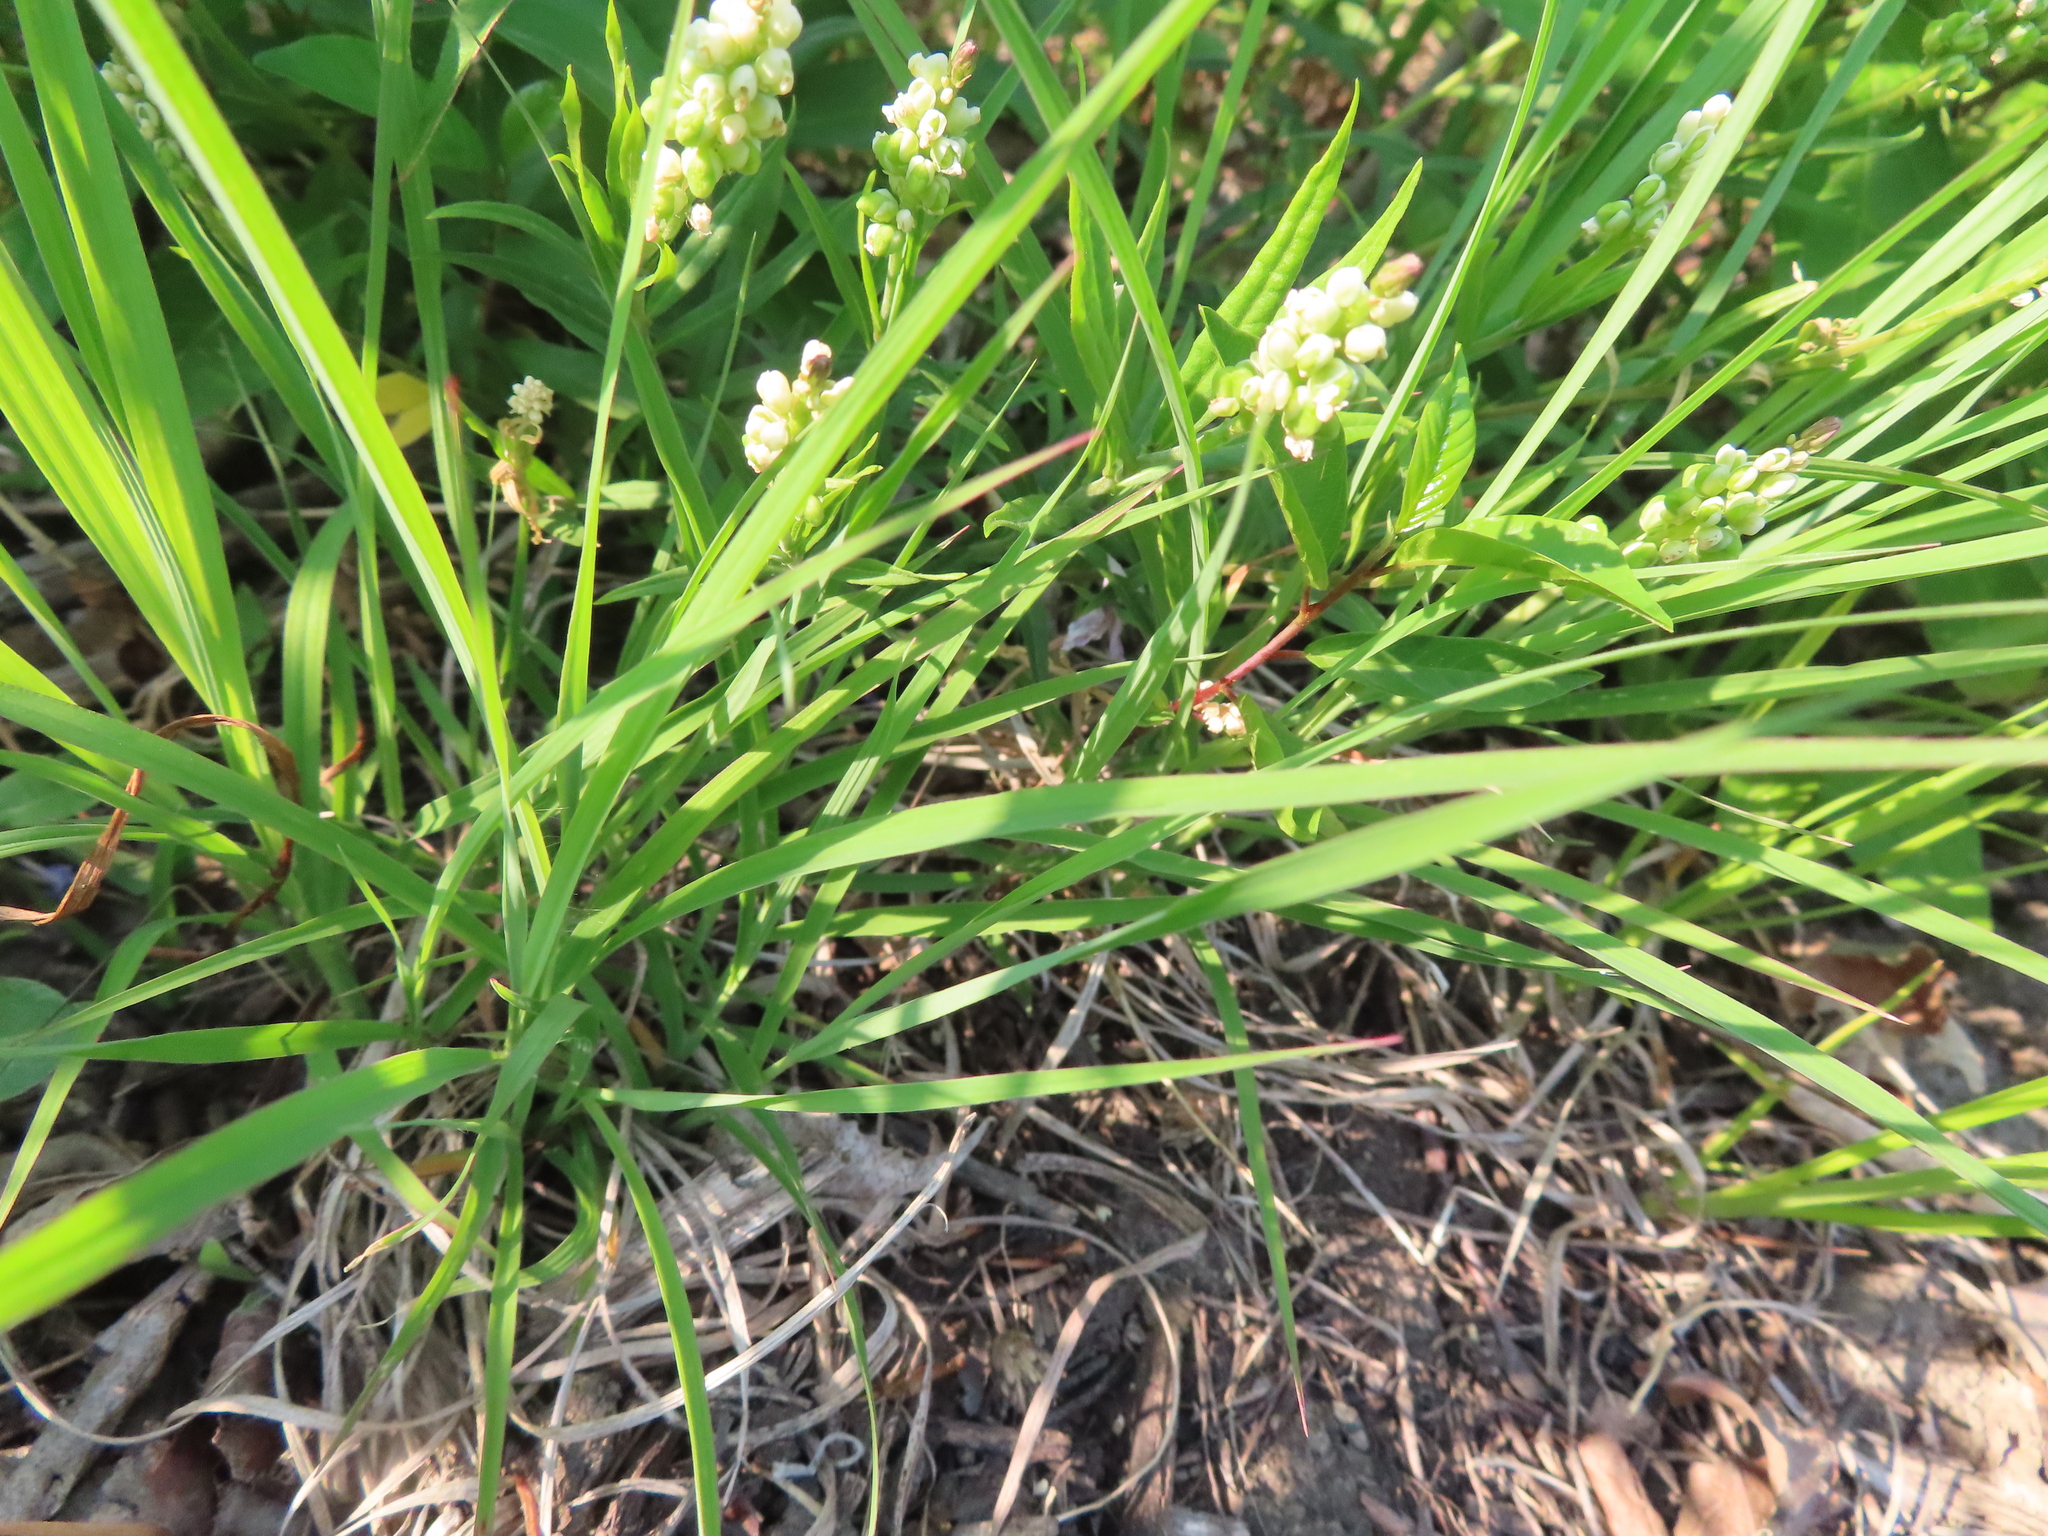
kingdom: Plantae
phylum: Tracheophyta
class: Magnoliopsida
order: Fabales
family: Polygalaceae
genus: Polygala
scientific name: Polygala senega
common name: Seneca snakeroot
